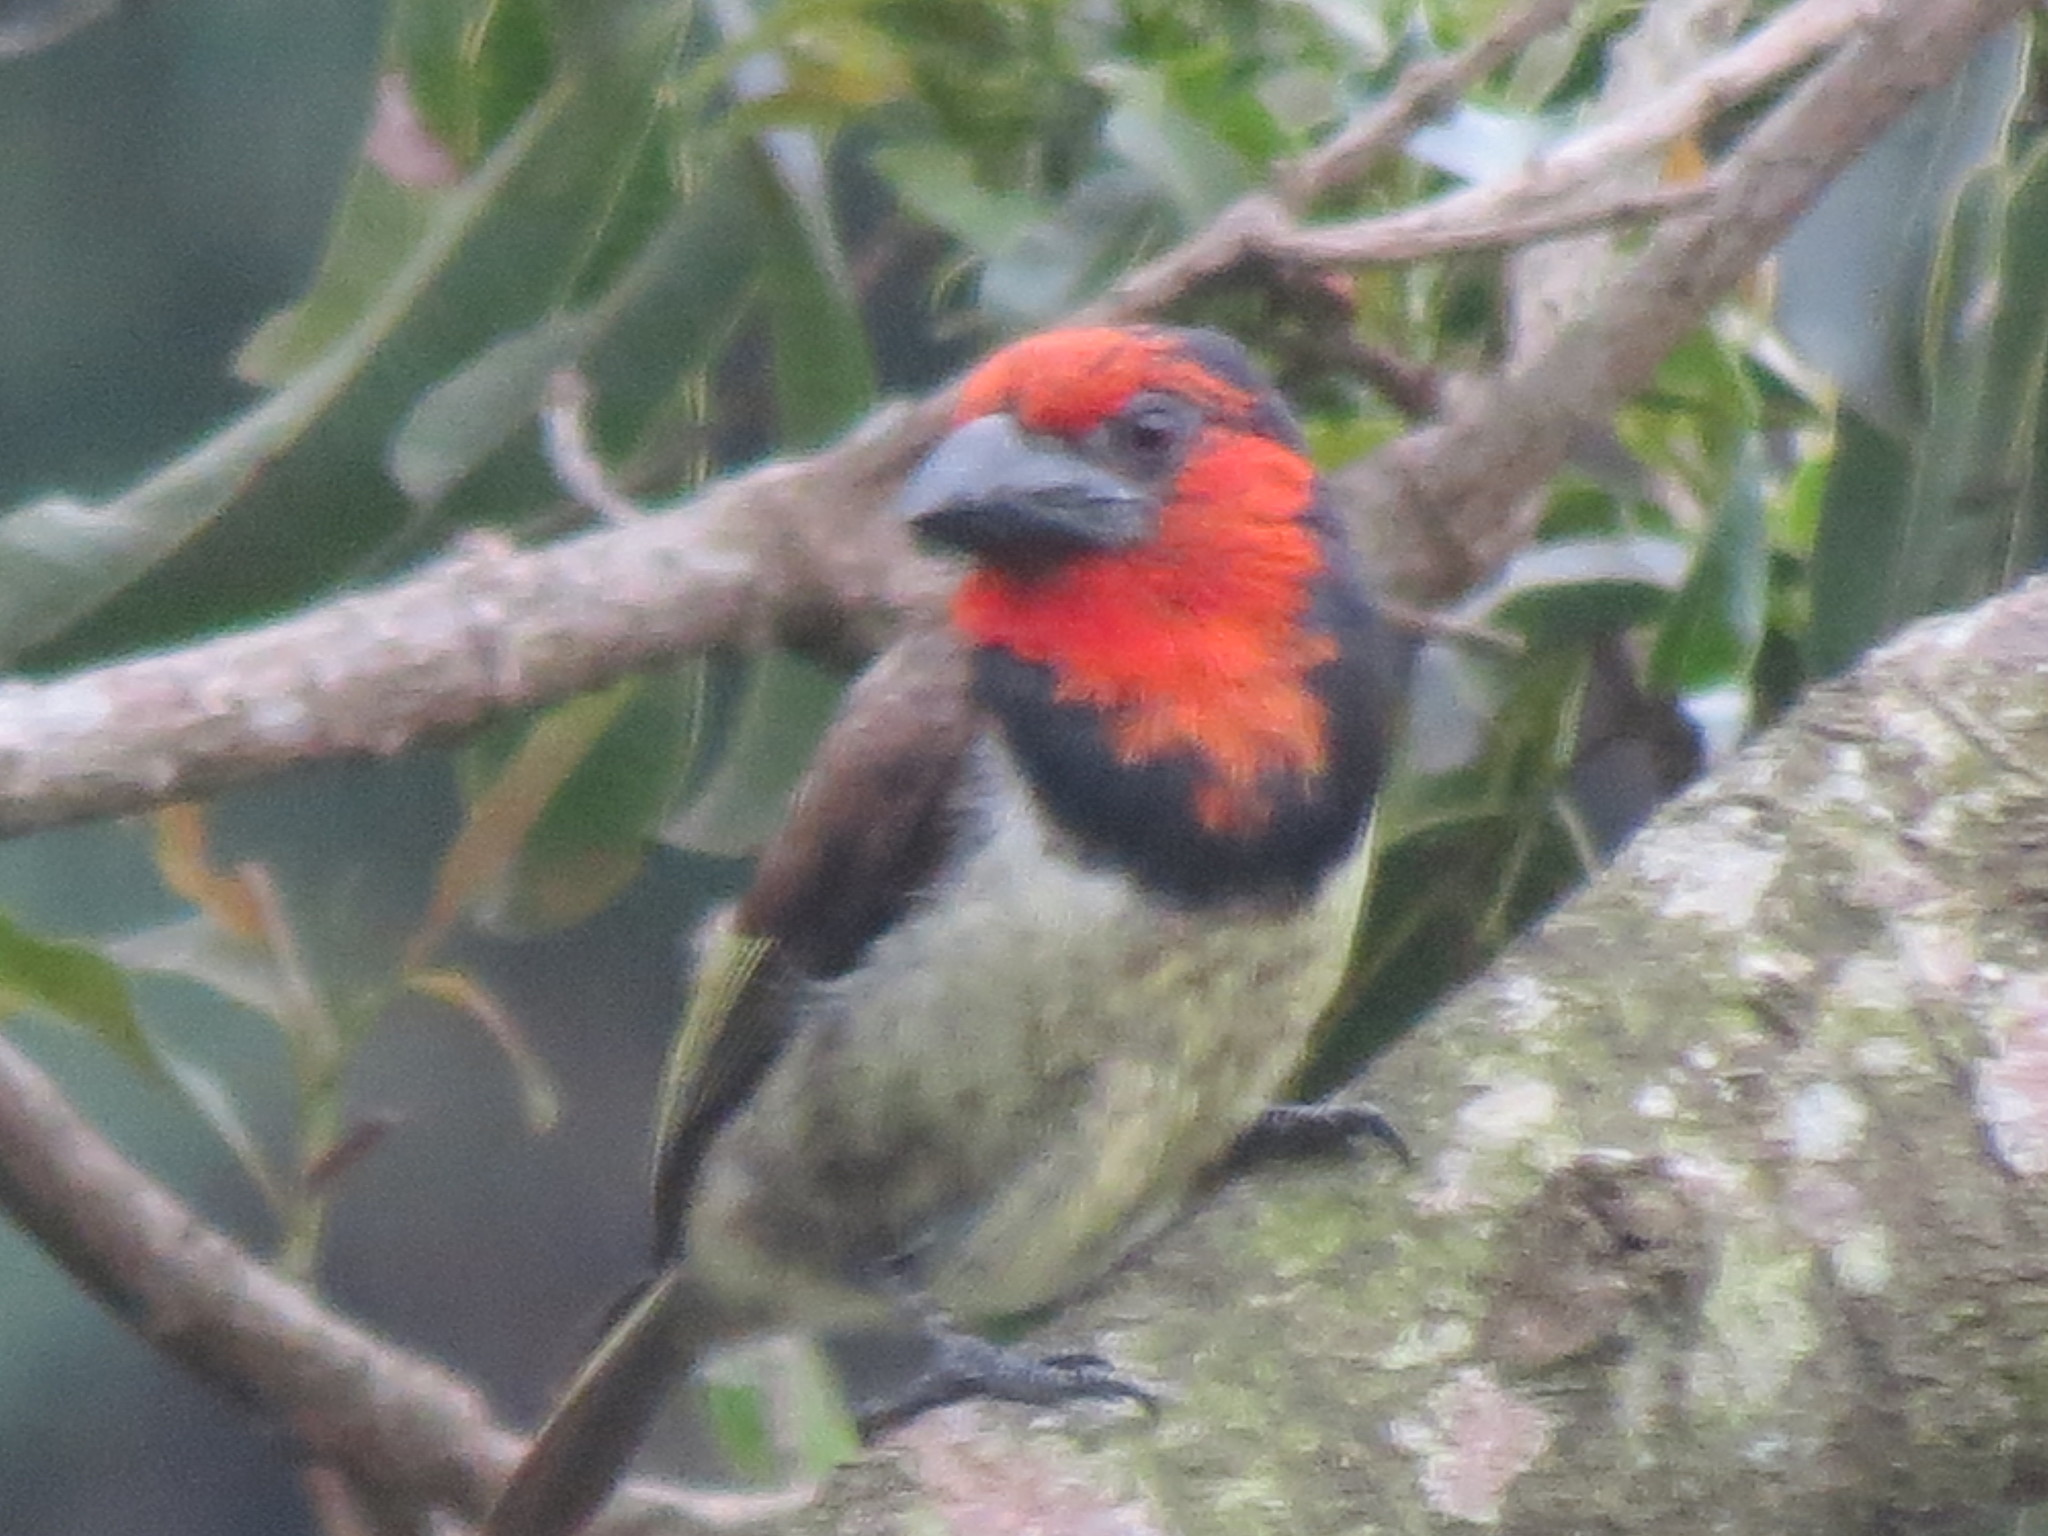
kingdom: Animalia
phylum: Chordata
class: Aves
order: Piciformes
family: Lybiidae
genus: Lybius
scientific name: Lybius torquatus
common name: Black-collared barbet
